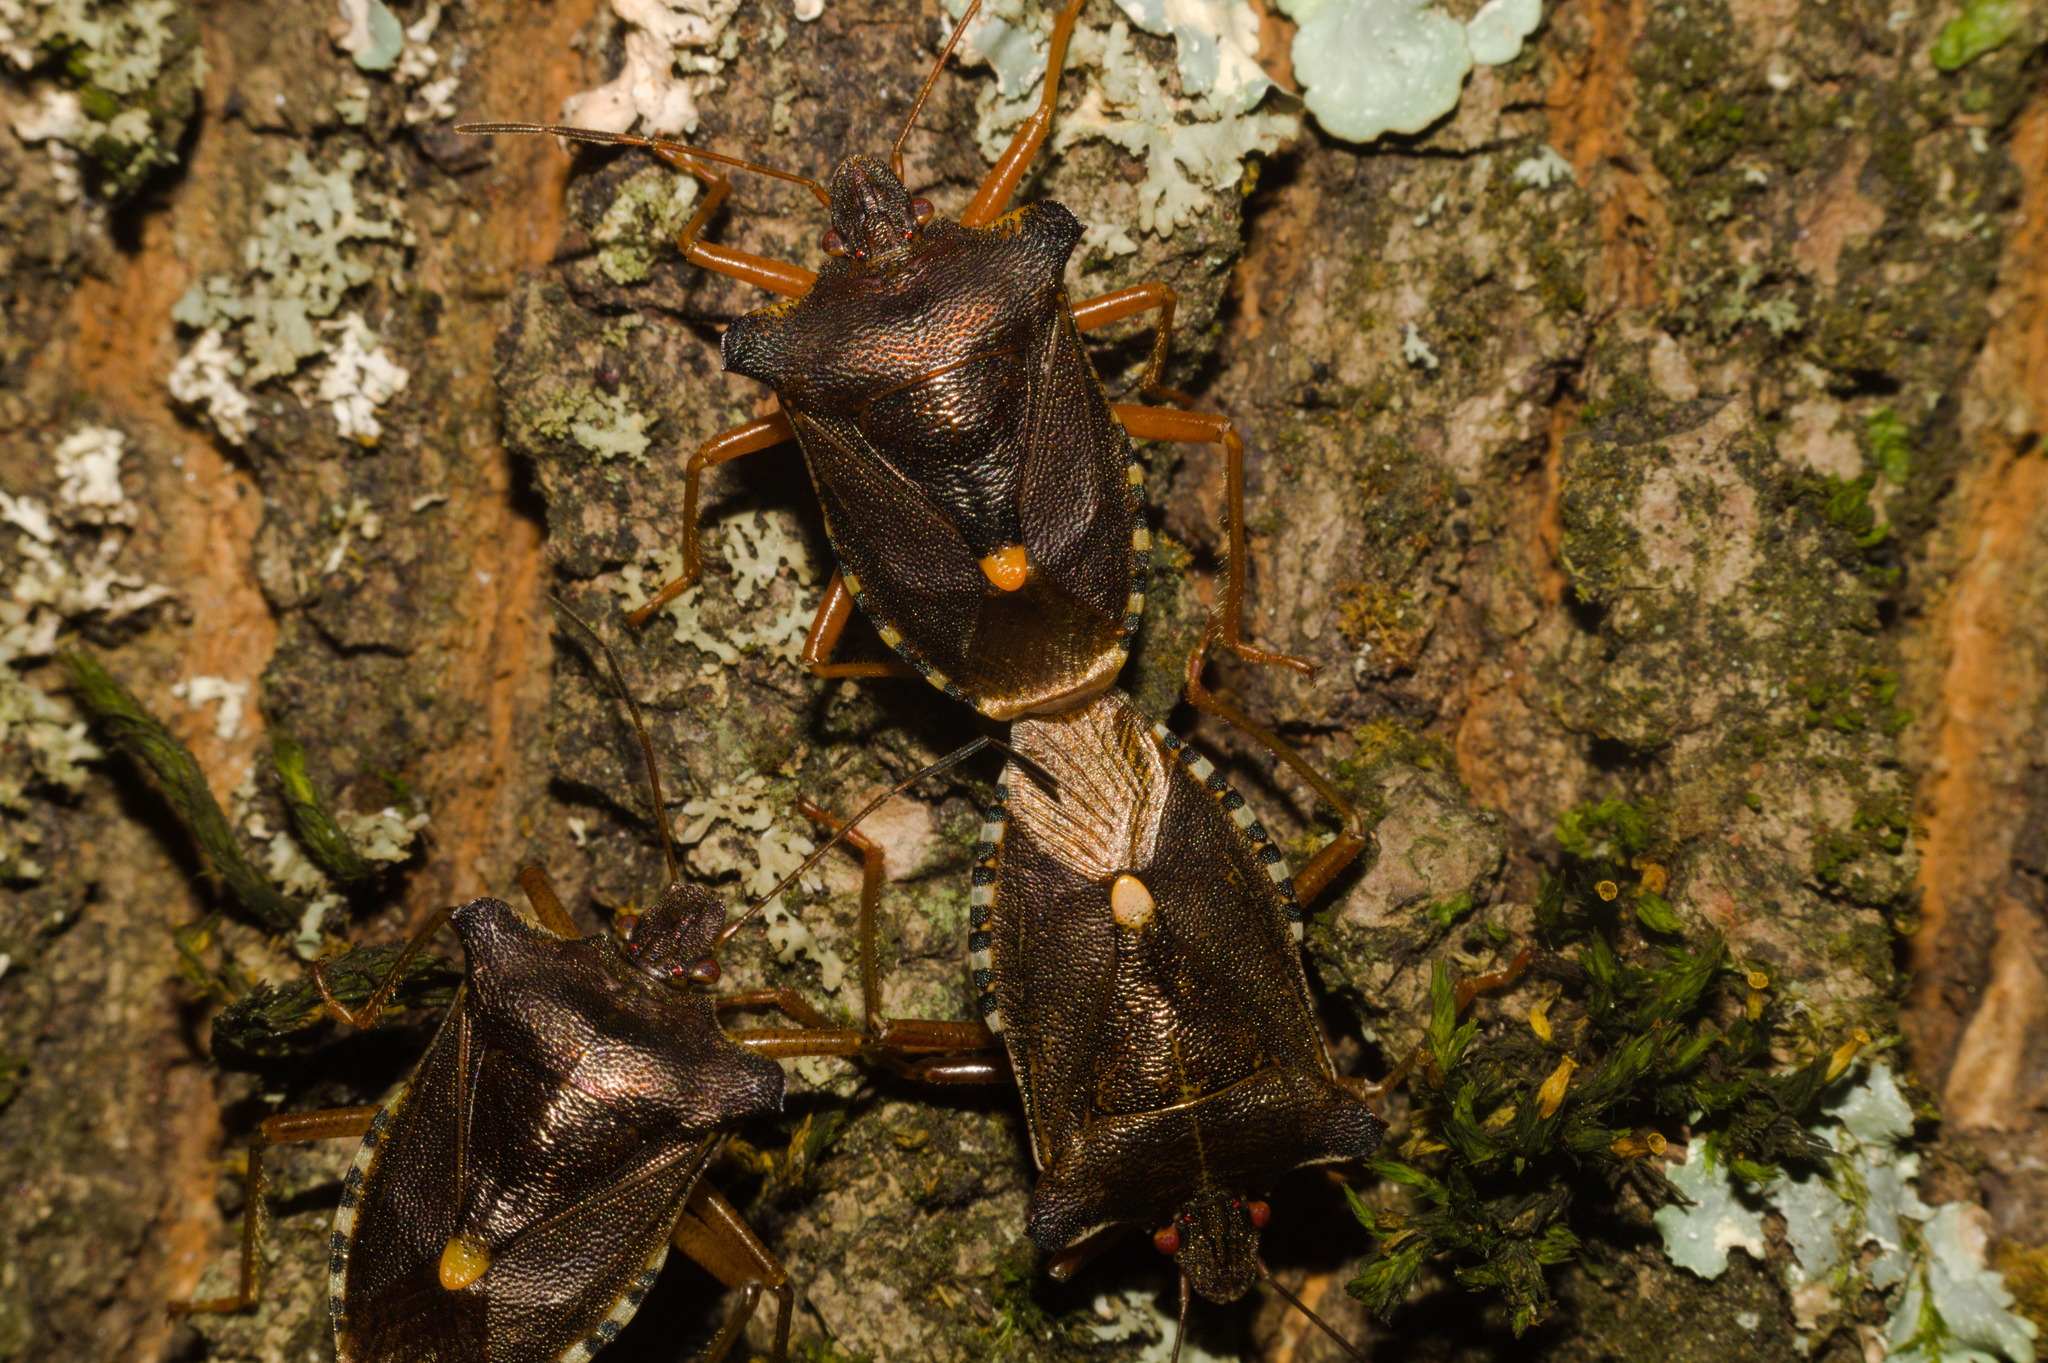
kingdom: Animalia
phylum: Arthropoda
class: Insecta
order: Hemiptera
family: Pentatomidae
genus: Pentatoma
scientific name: Pentatoma rufipes
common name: Forest bug
